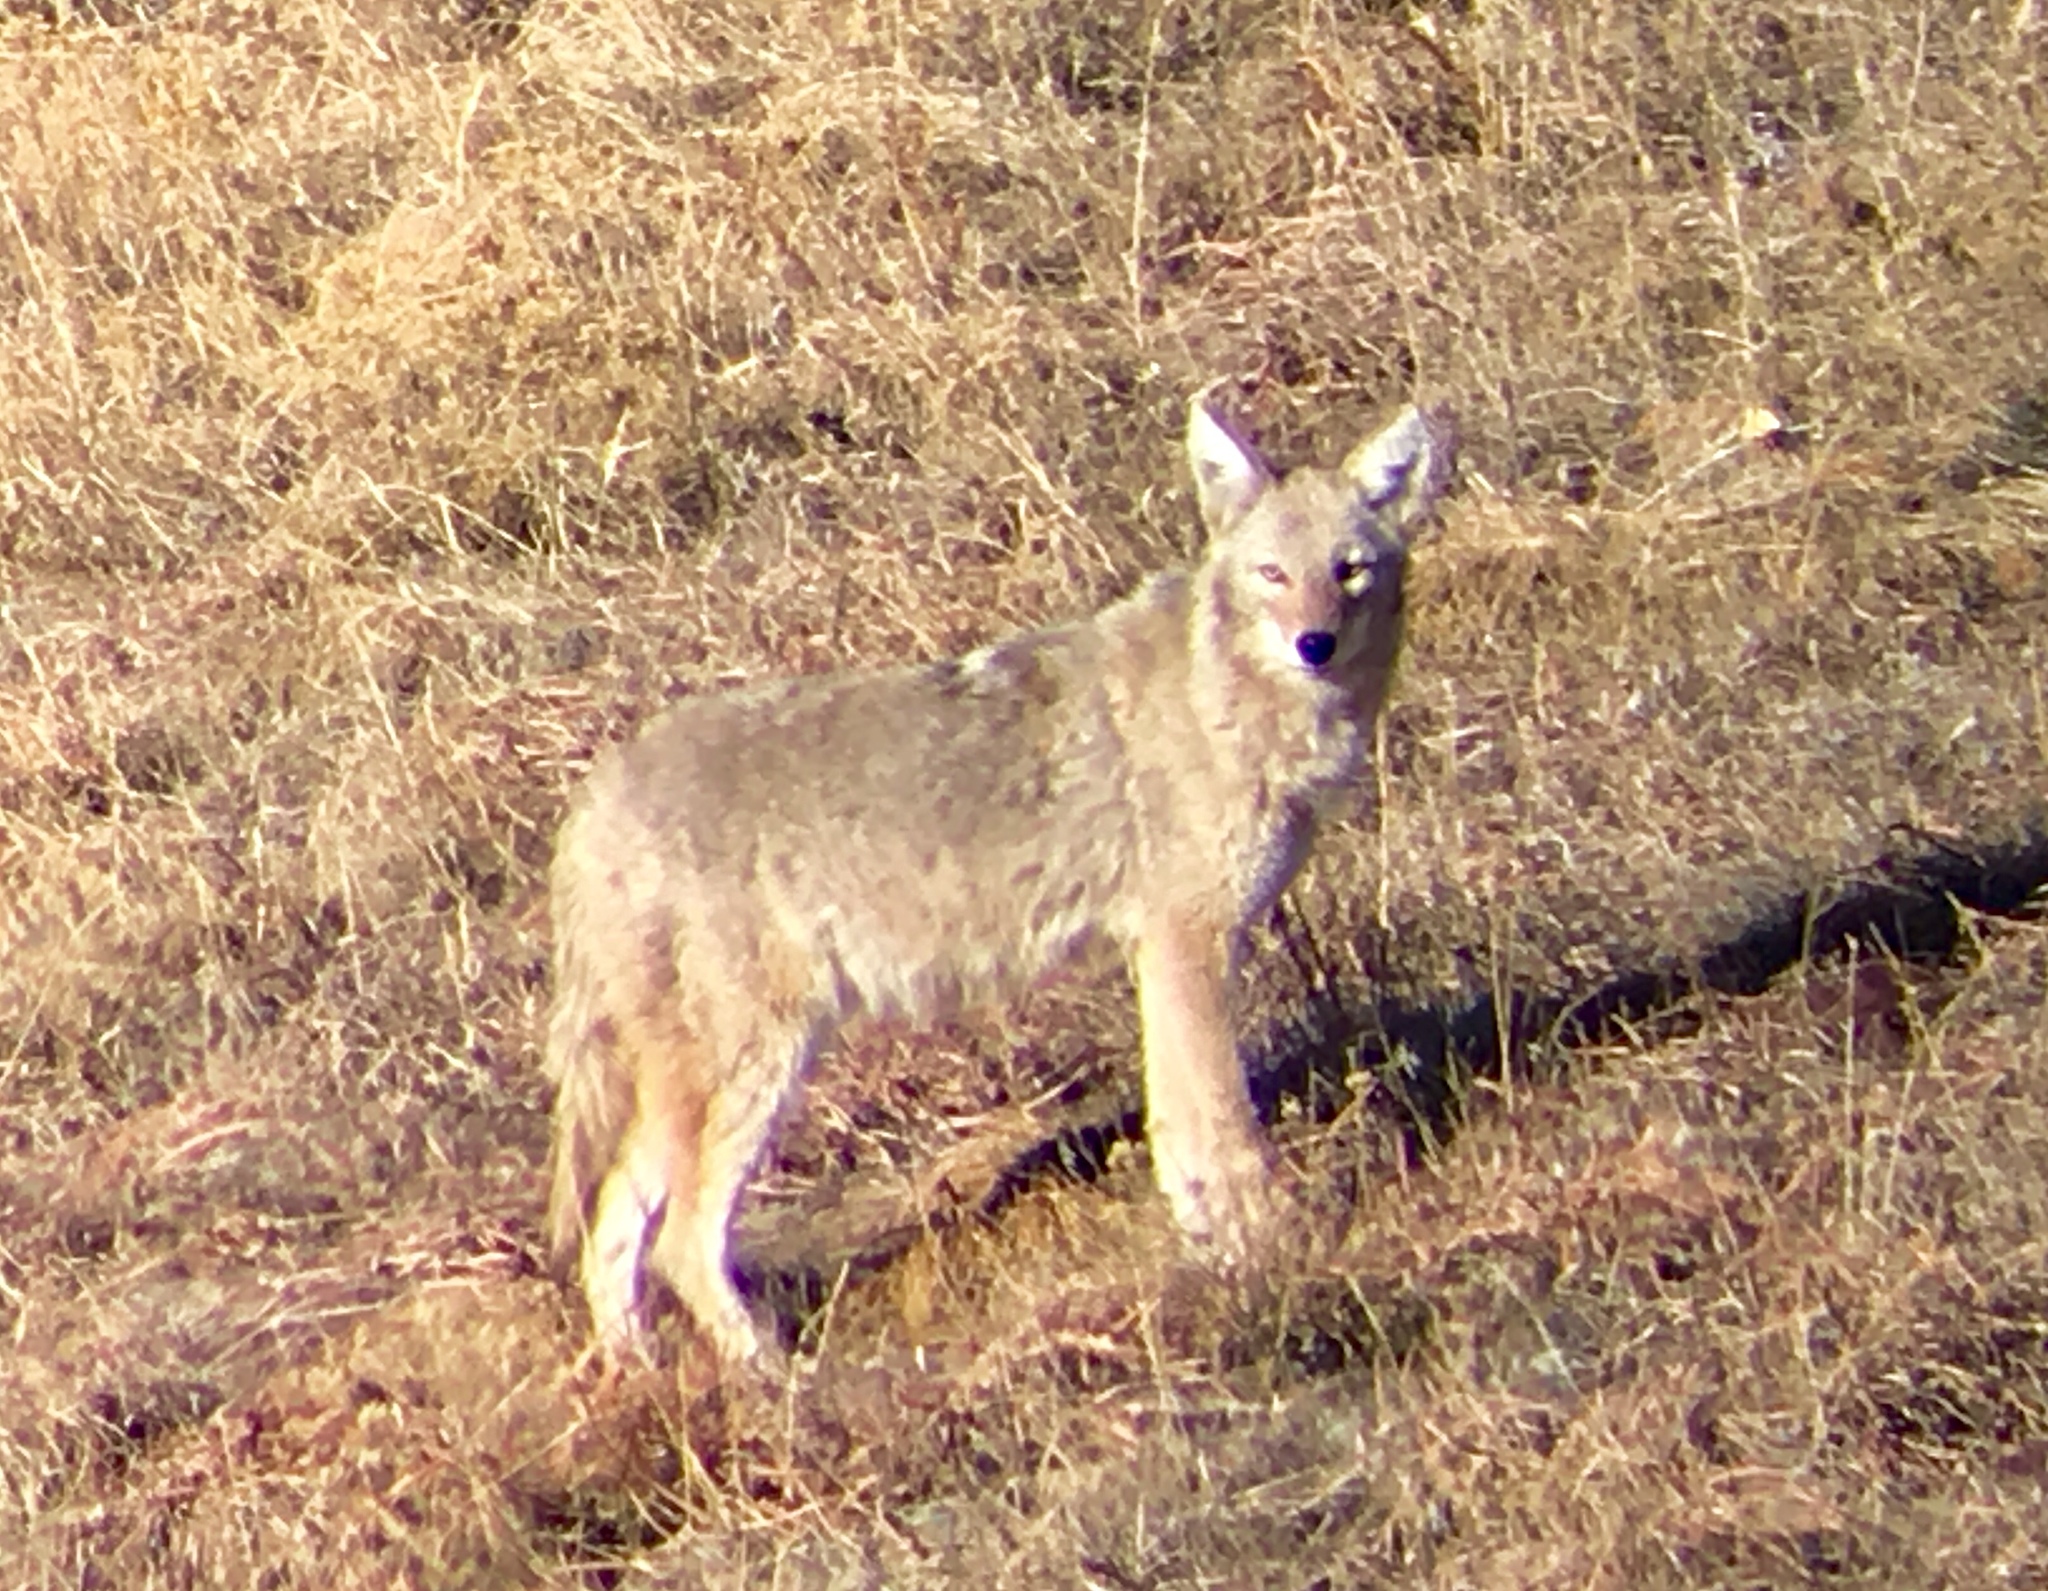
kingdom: Animalia
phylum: Chordata
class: Mammalia
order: Carnivora
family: Canidae
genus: Canis
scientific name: Canis latrans
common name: Coyote
